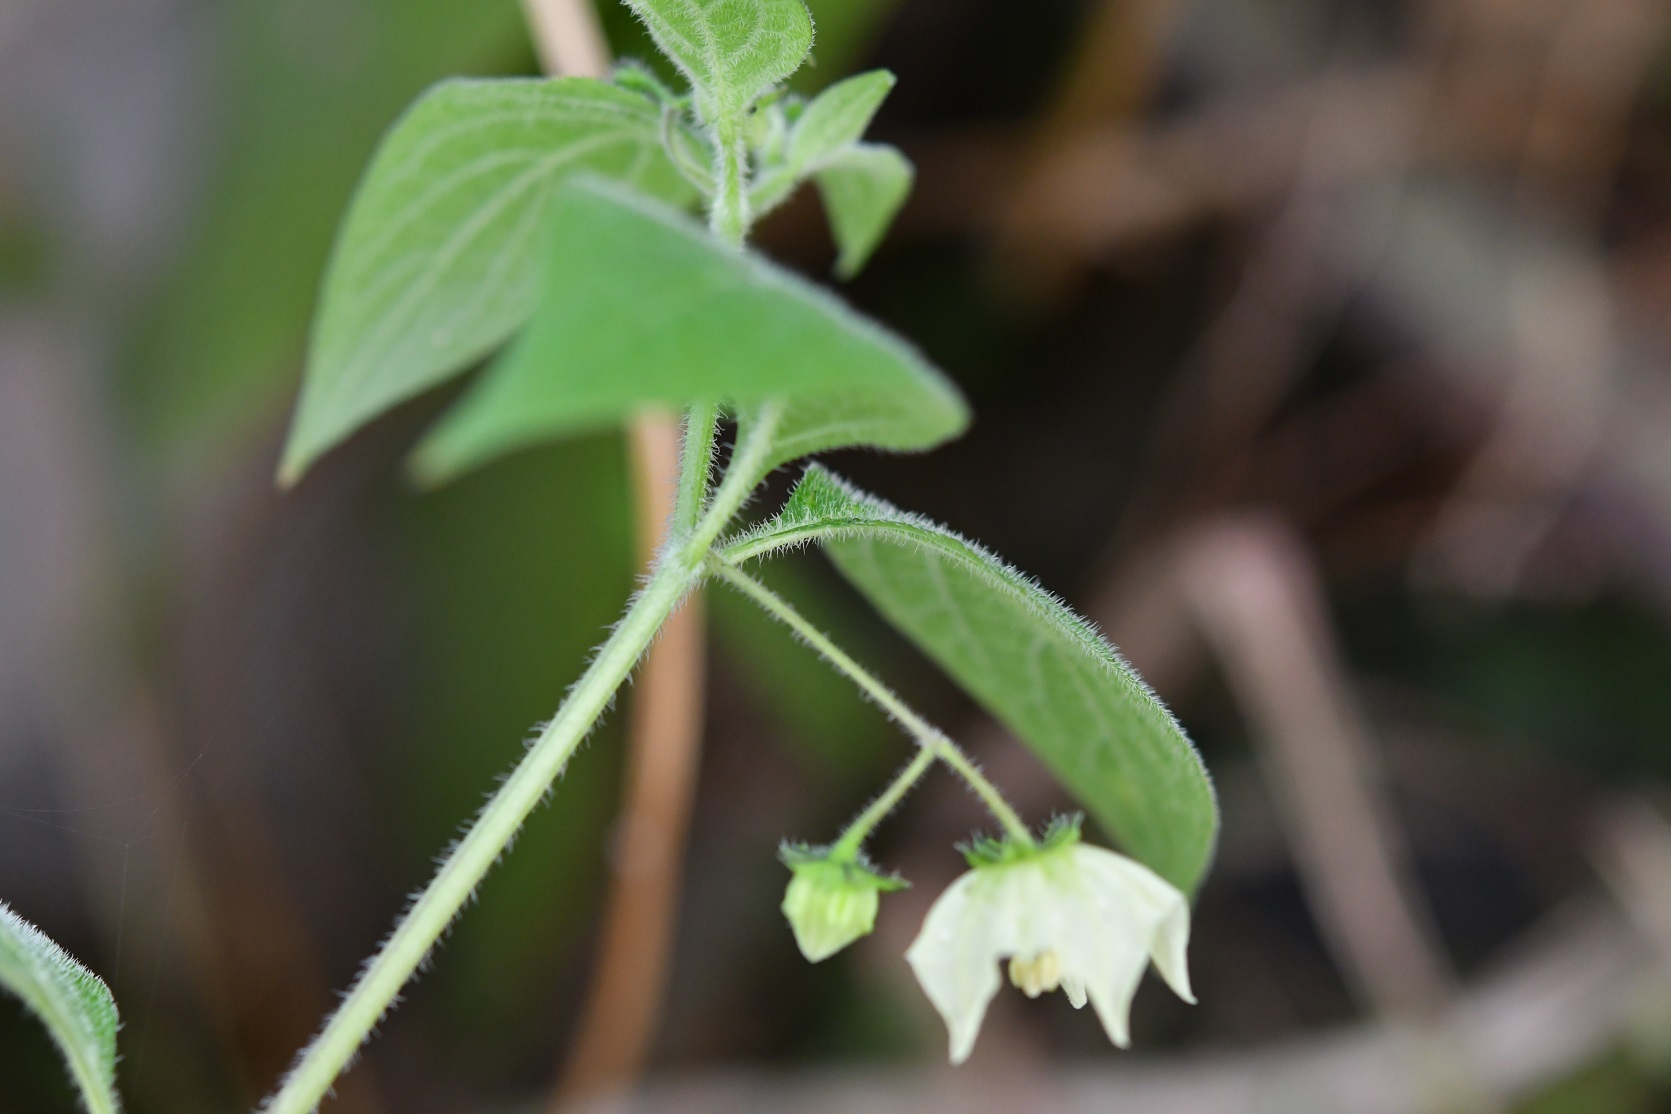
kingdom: Plantae
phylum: Tracheophyta
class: Magnoliopsida
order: Solanales
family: Solanaceae
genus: Jaltomata
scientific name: Jaltomata procumbens
